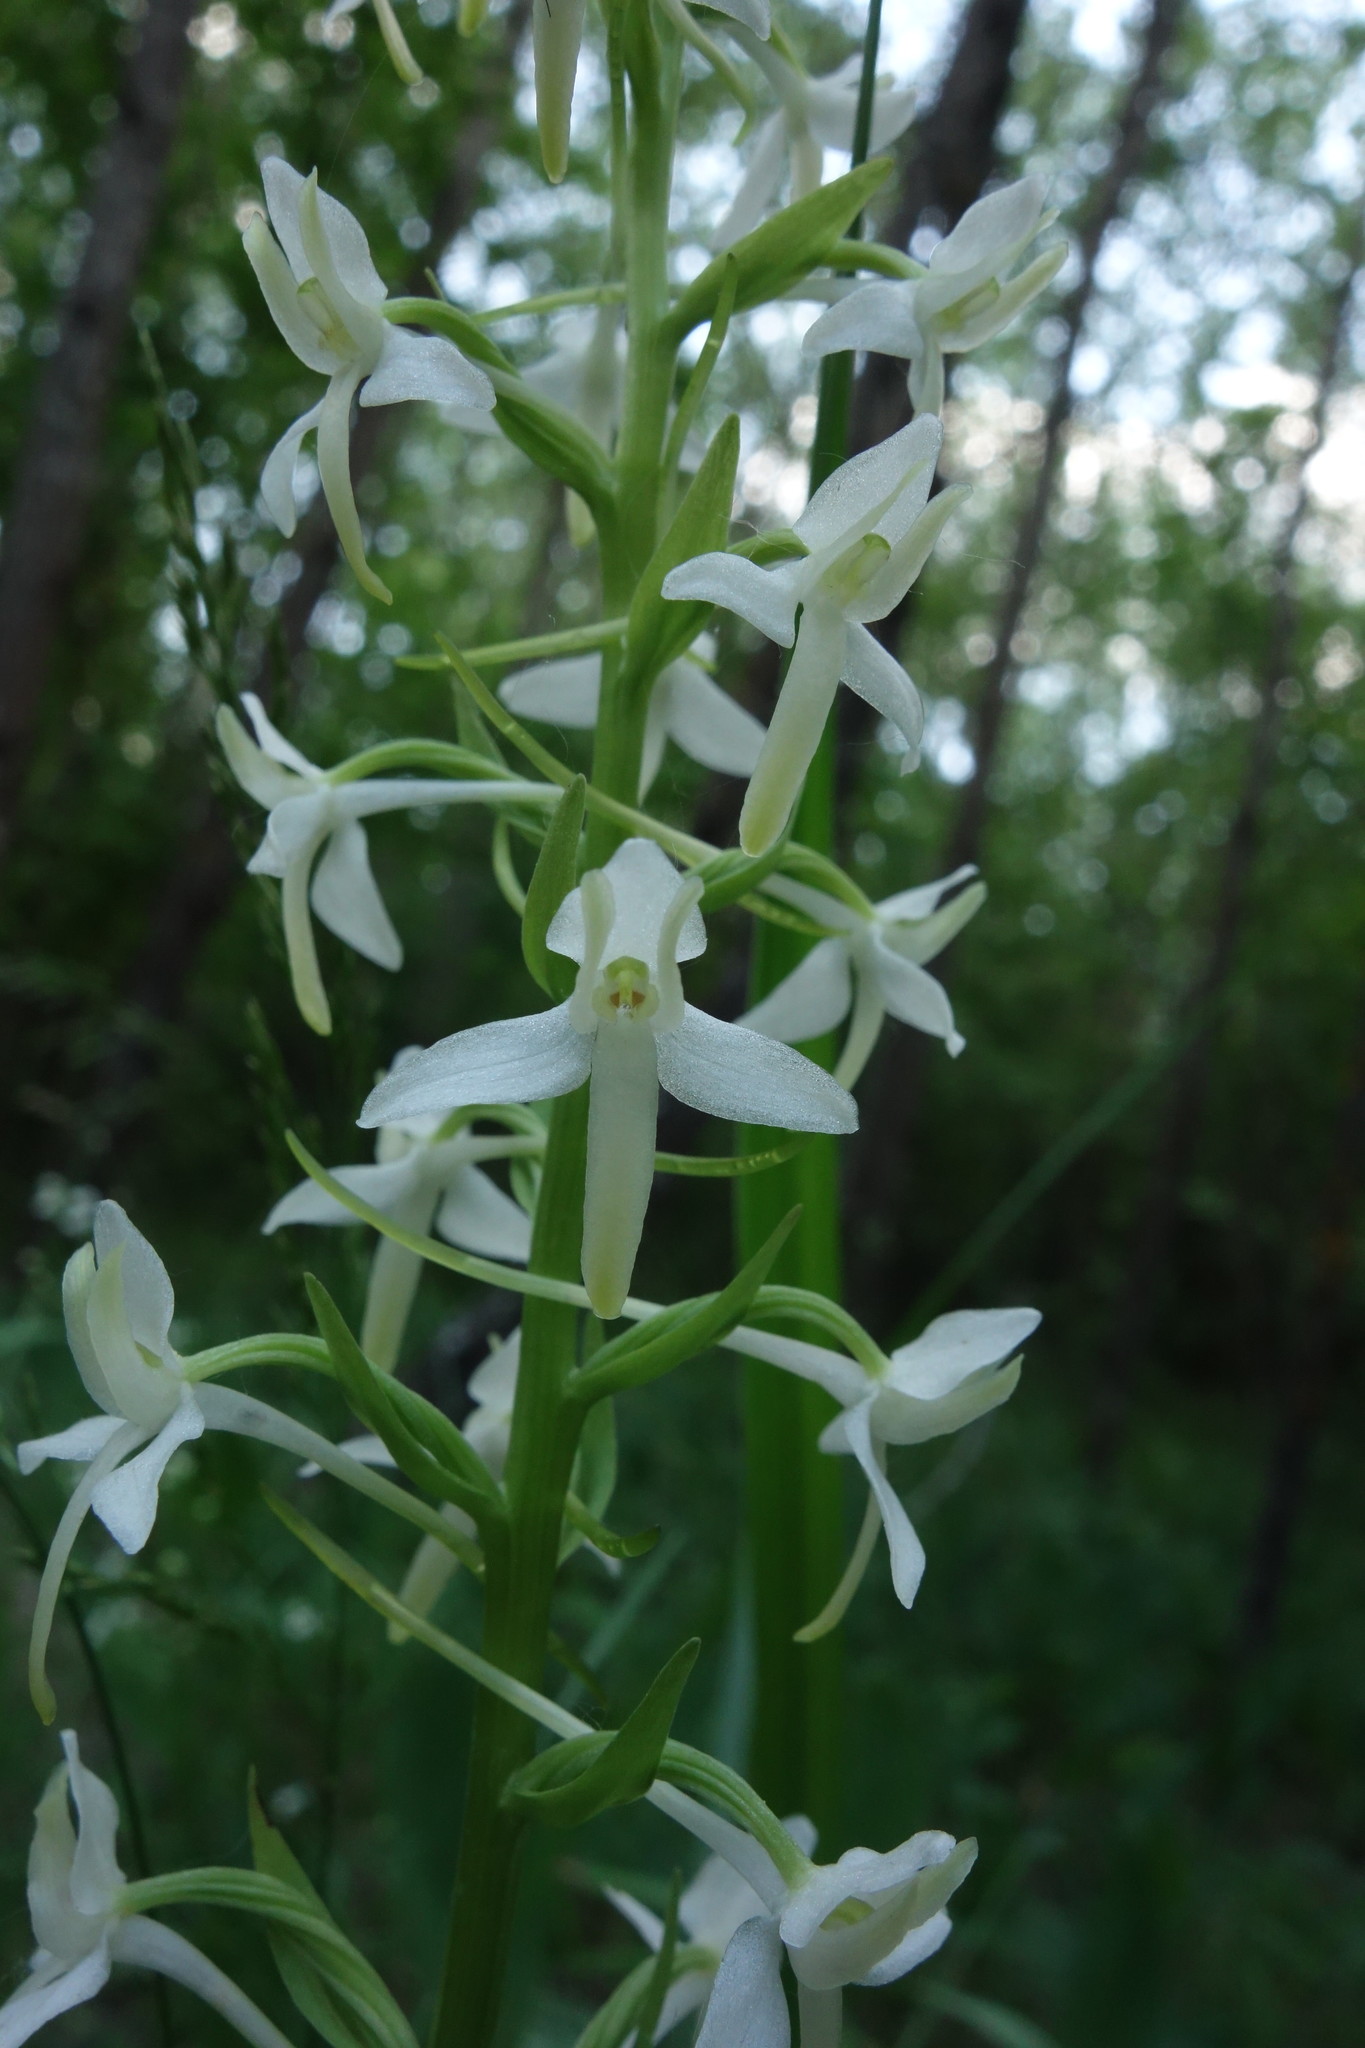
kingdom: Plantae
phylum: Tracheophyta
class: Liliopsida
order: Asparagales
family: Orchidaceae
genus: Platanthera
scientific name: Platanthera bifolia
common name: Lesser butterfly-orchid
